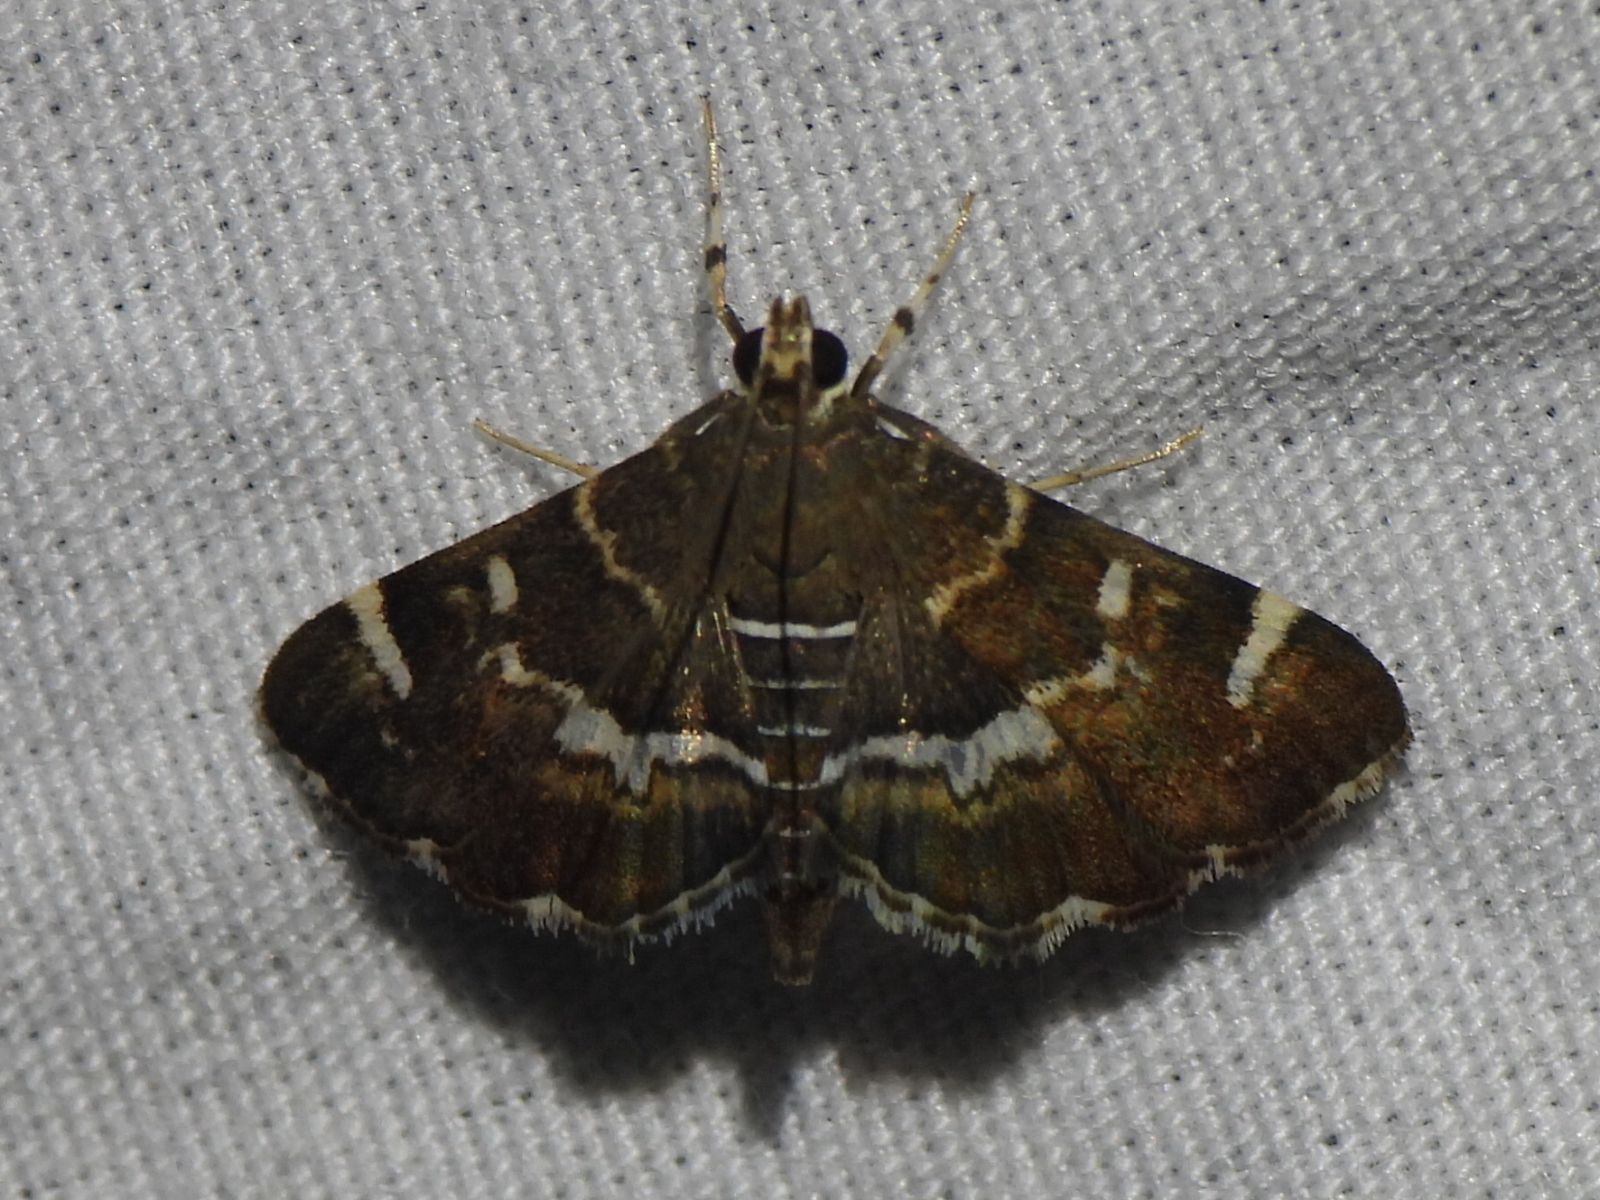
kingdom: Animalia
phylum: Arthropoda
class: Insecta
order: Lepidoptera
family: Crambidae
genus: Hymenia
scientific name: Hymenia perspectalis
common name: Spotted beet webworm
